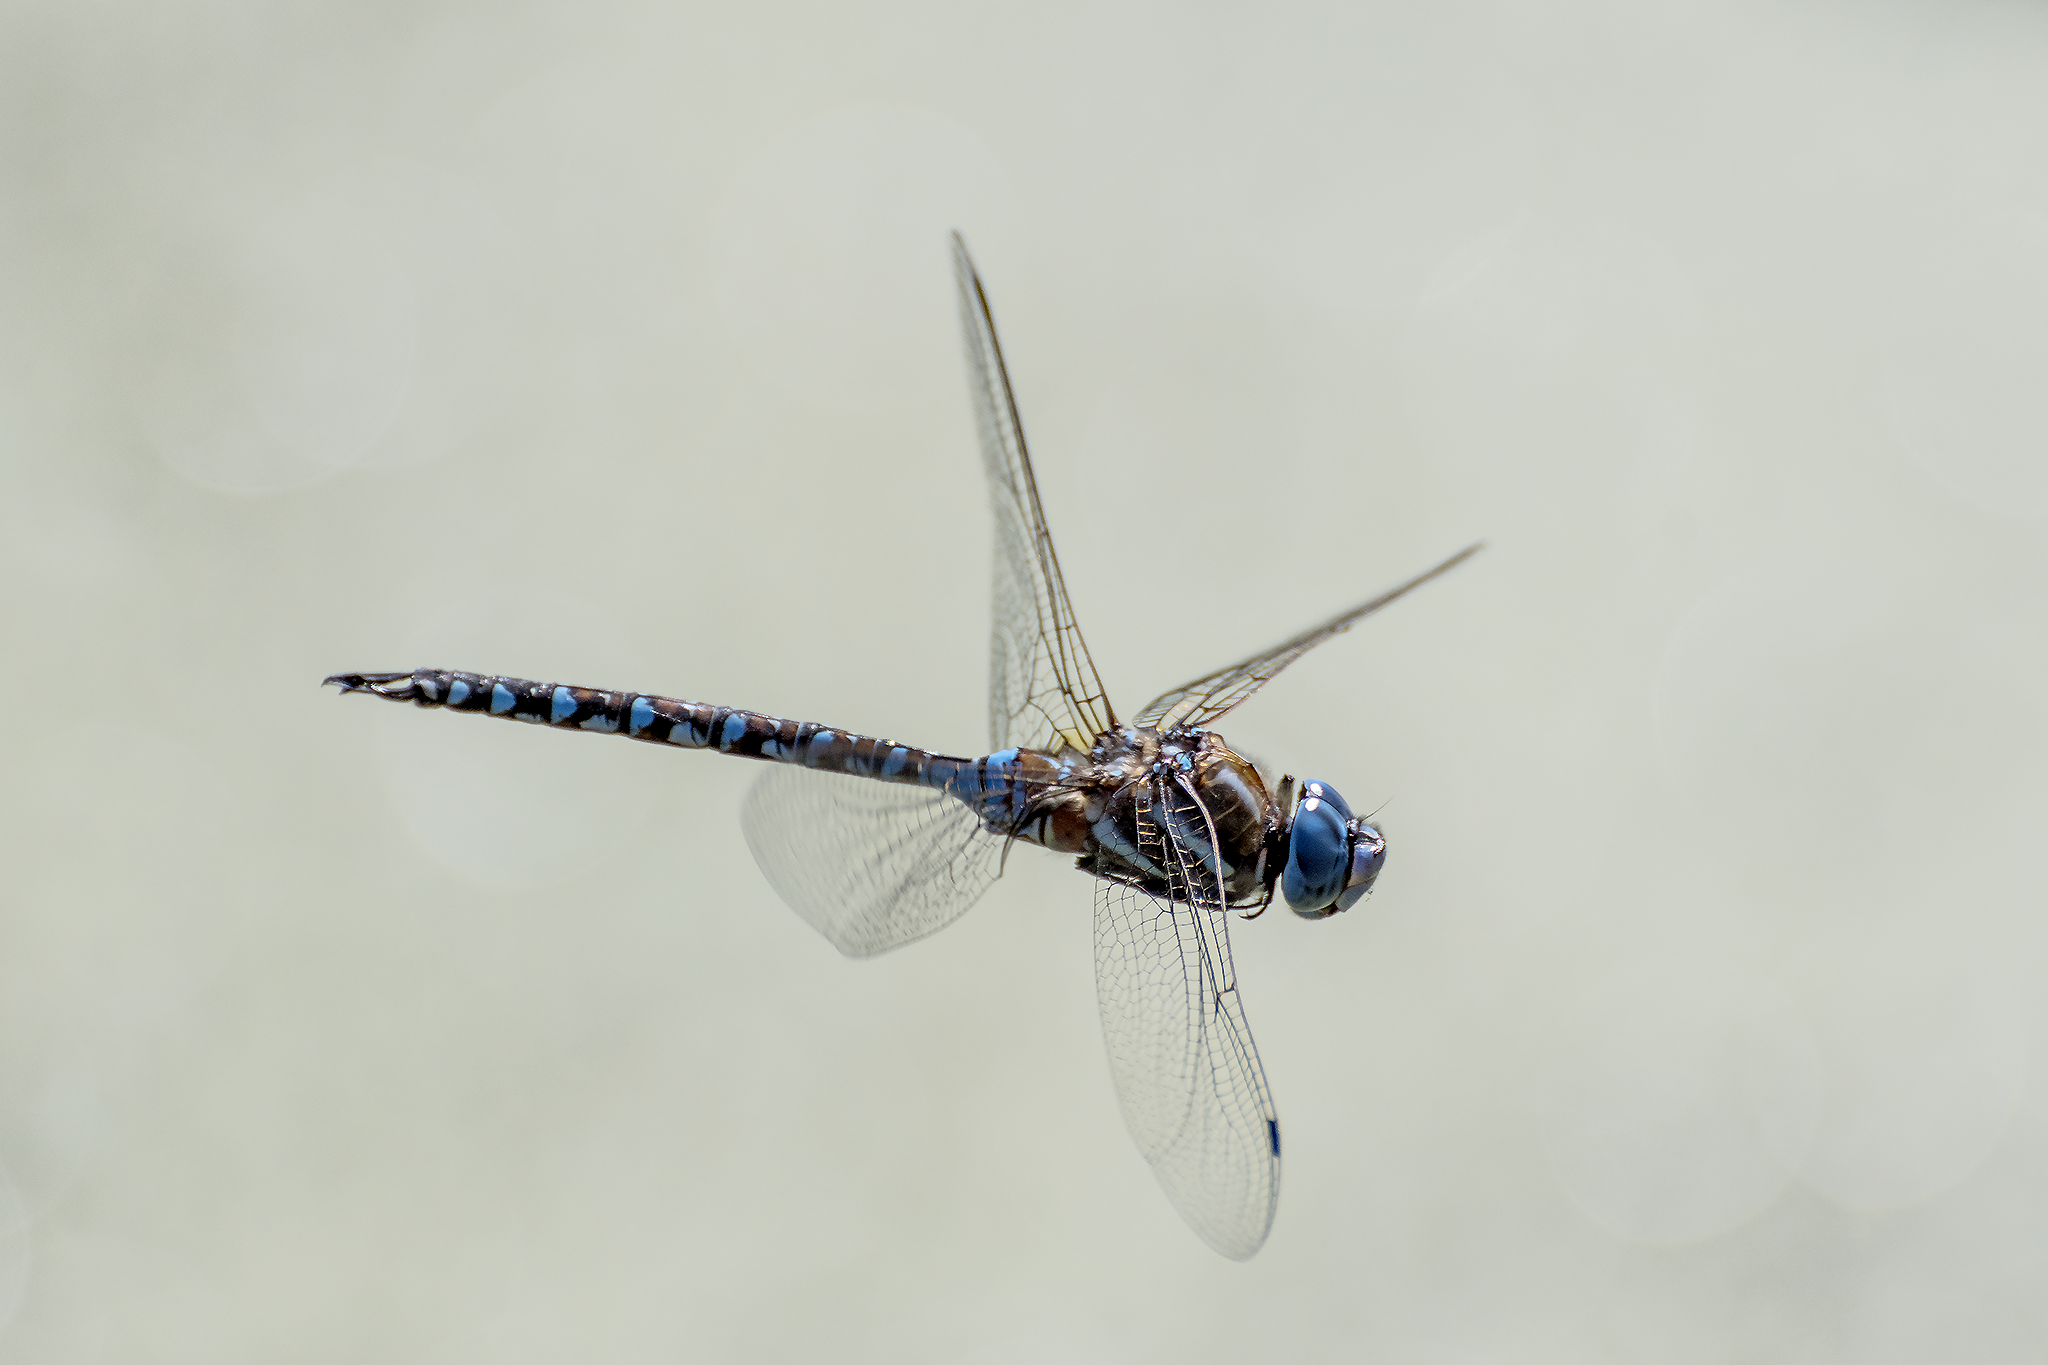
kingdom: Animalia
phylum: Arthropoda
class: Insecta
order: Odonata
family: Aeshnidae
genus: Rhionaeschna
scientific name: Rhionaeschna multicolor
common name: Blue-eyed darner
